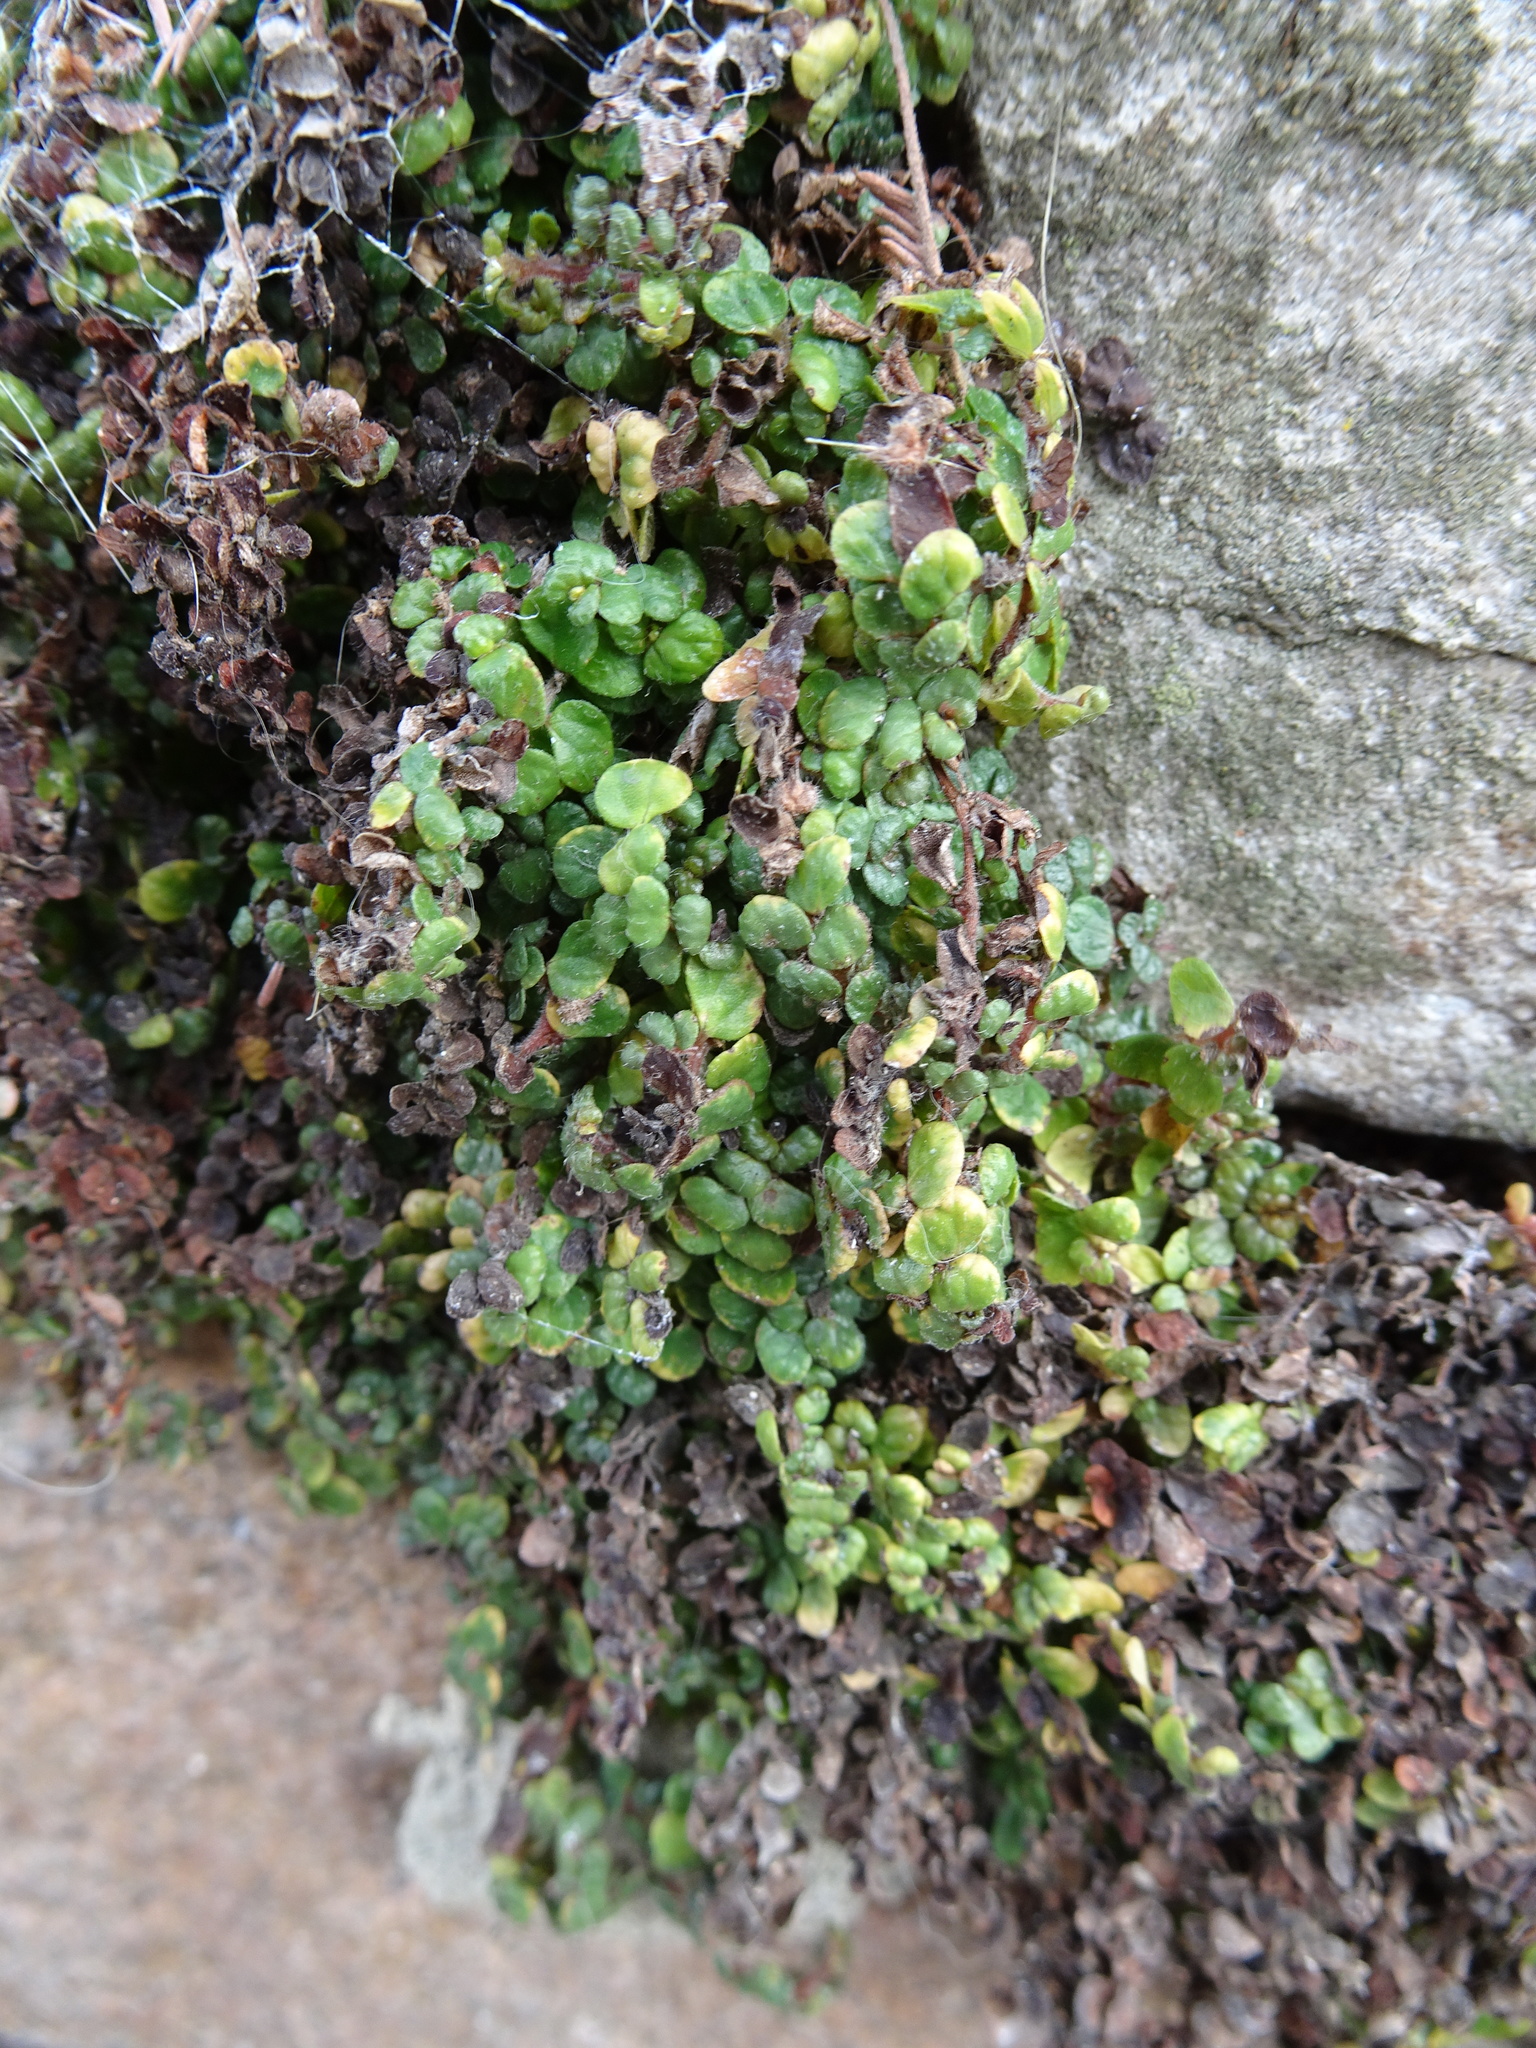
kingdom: Plantae
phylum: Tracheophyta
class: Magnoliopsida
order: Rosales
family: Urticaceae
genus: Soleirolia
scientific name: Soleirolia soleirolii
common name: Mind-your-own-business
